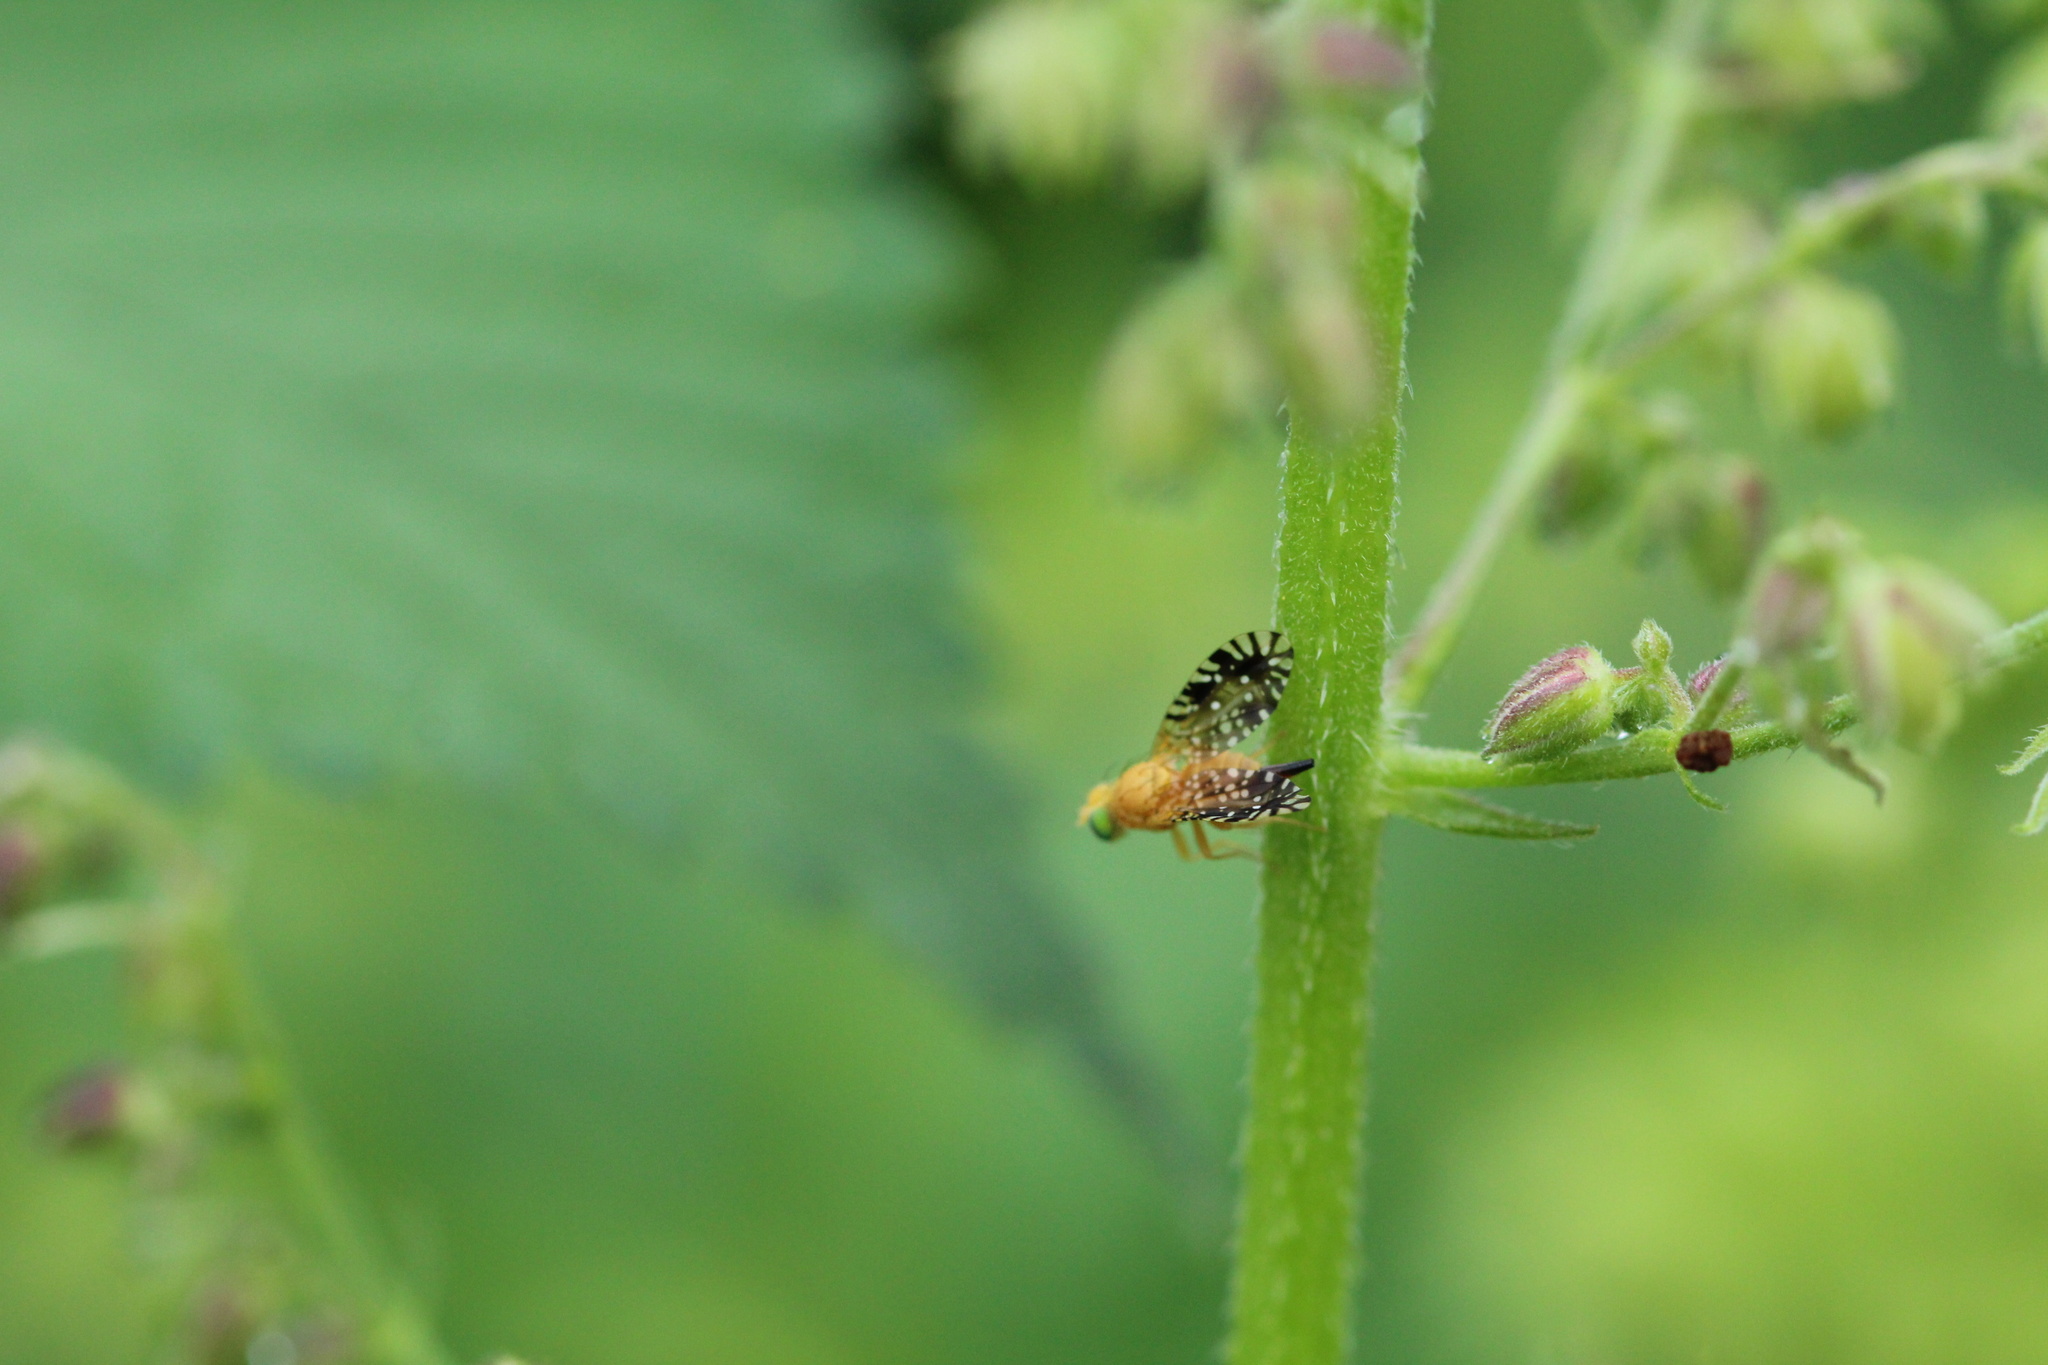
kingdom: Animalia
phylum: Arthropoda
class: Insecta
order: Diptera
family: Tephritidae
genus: Euaresta
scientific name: Euaresta festiva
